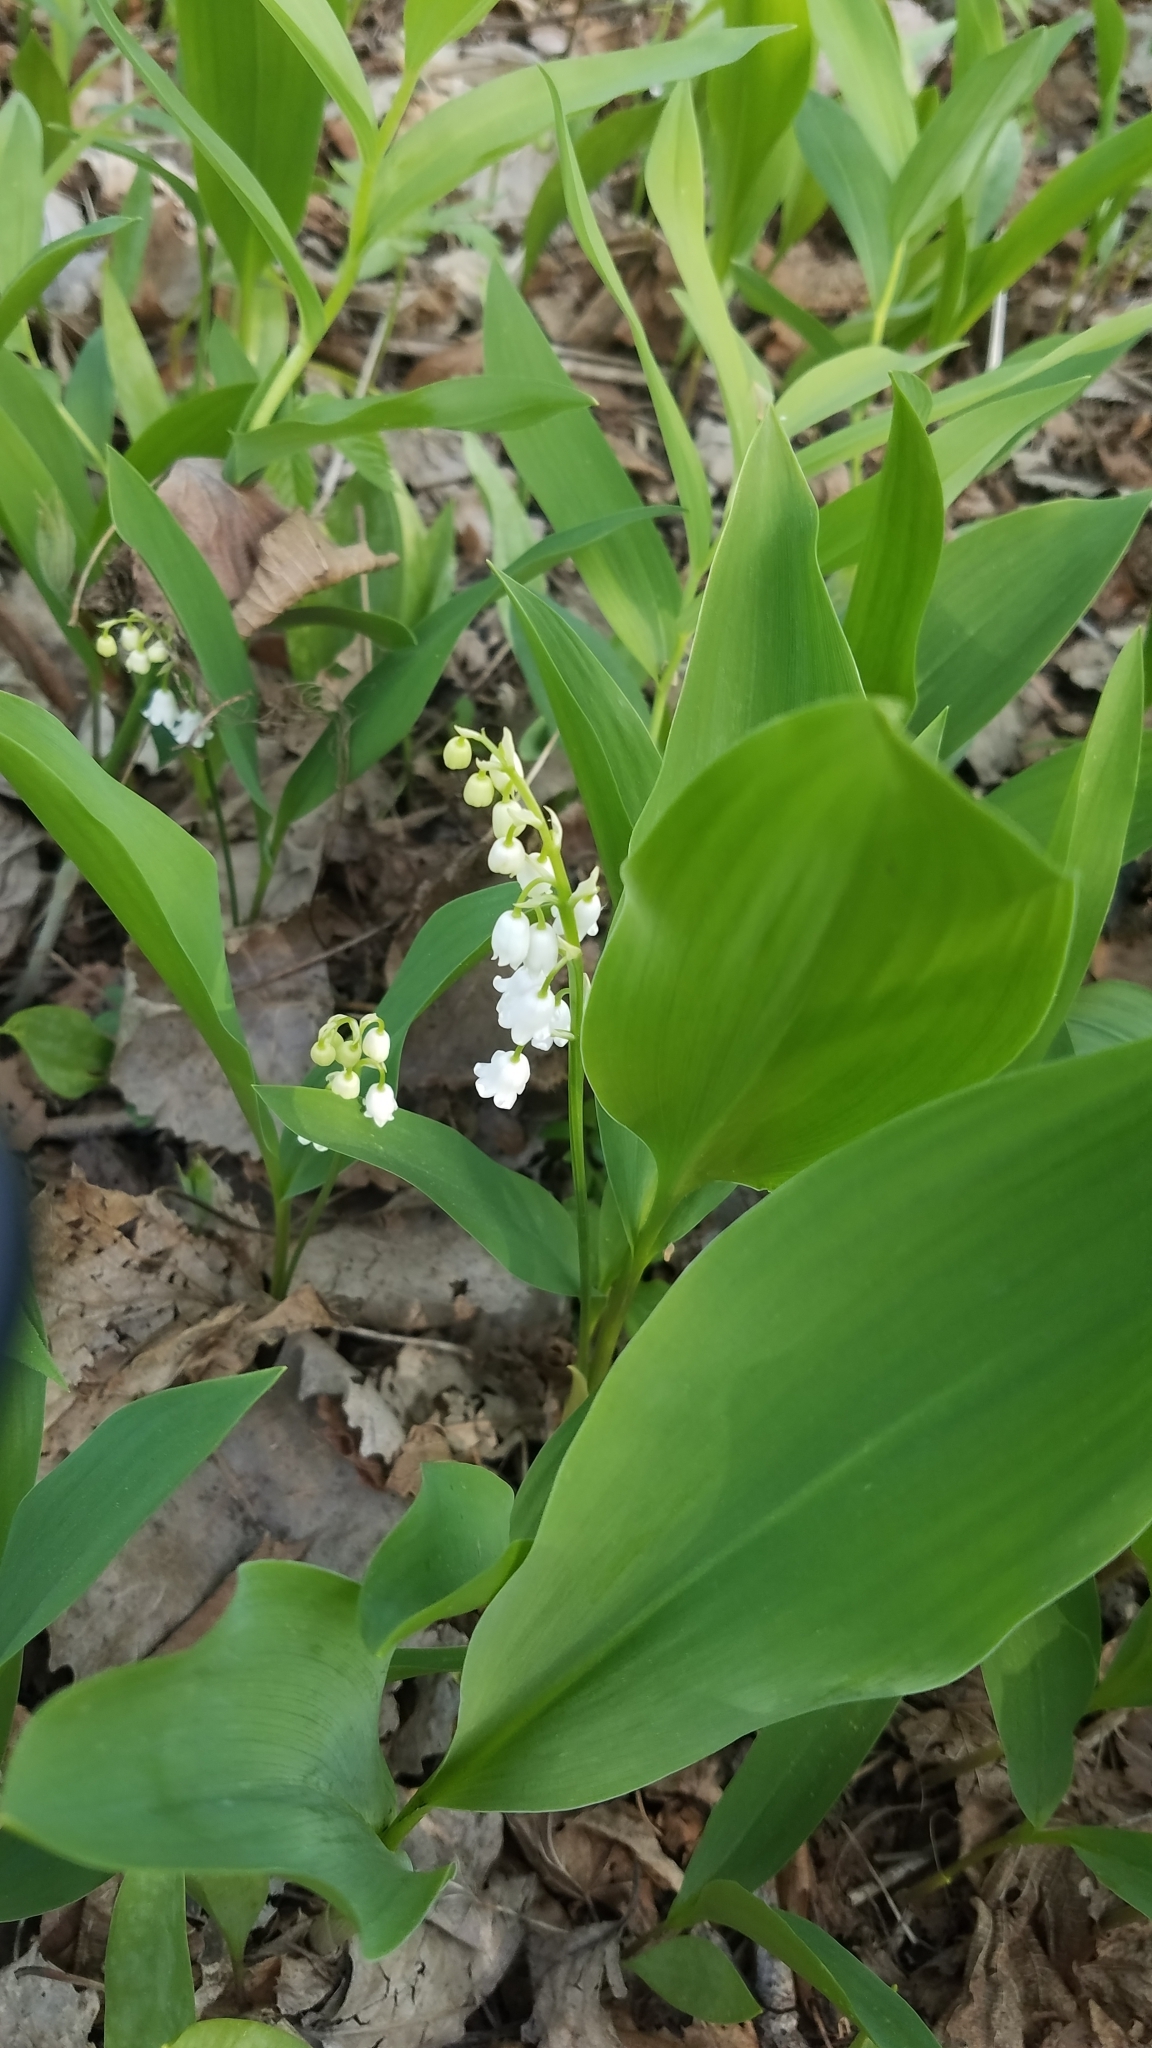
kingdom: Plantae
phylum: Tracheophyta
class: Liliopsida
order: Asparagales
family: Asparagaceae
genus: Convallaria
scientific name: Convallaria majalis
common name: Lily-of-the-valley
